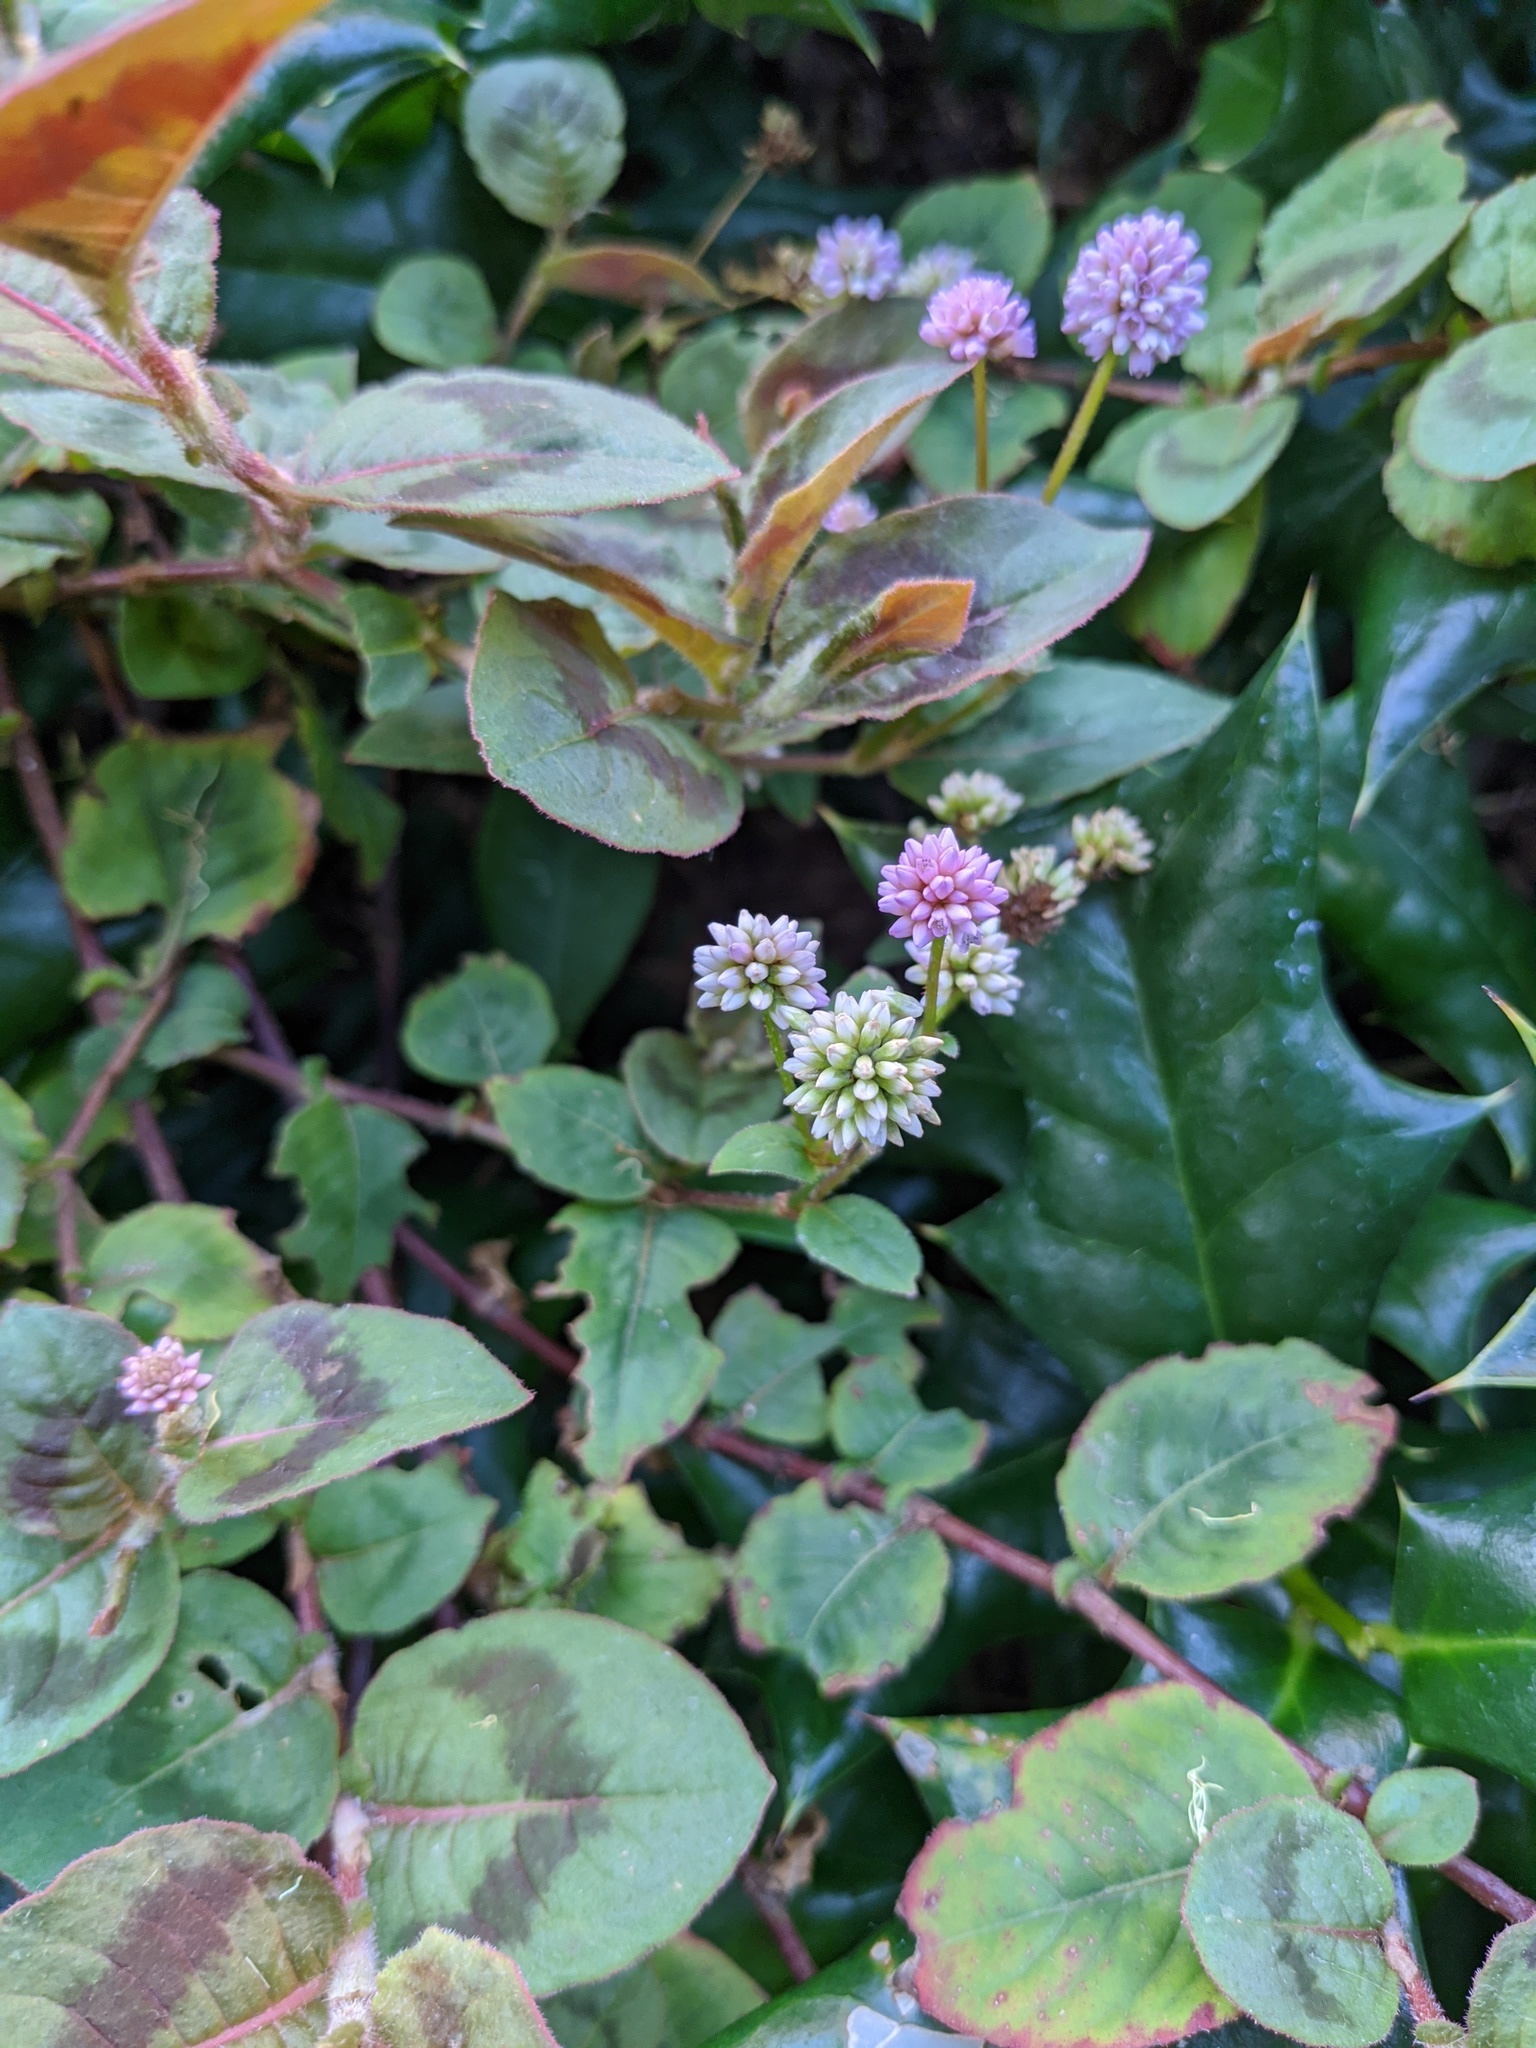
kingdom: Plantae
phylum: Tracheophyta
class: Magnoliopsida
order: Caryophyllales
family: Polygonaceae
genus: Persicaria
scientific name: Persicaria capitata
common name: Pinkhead smartweed
